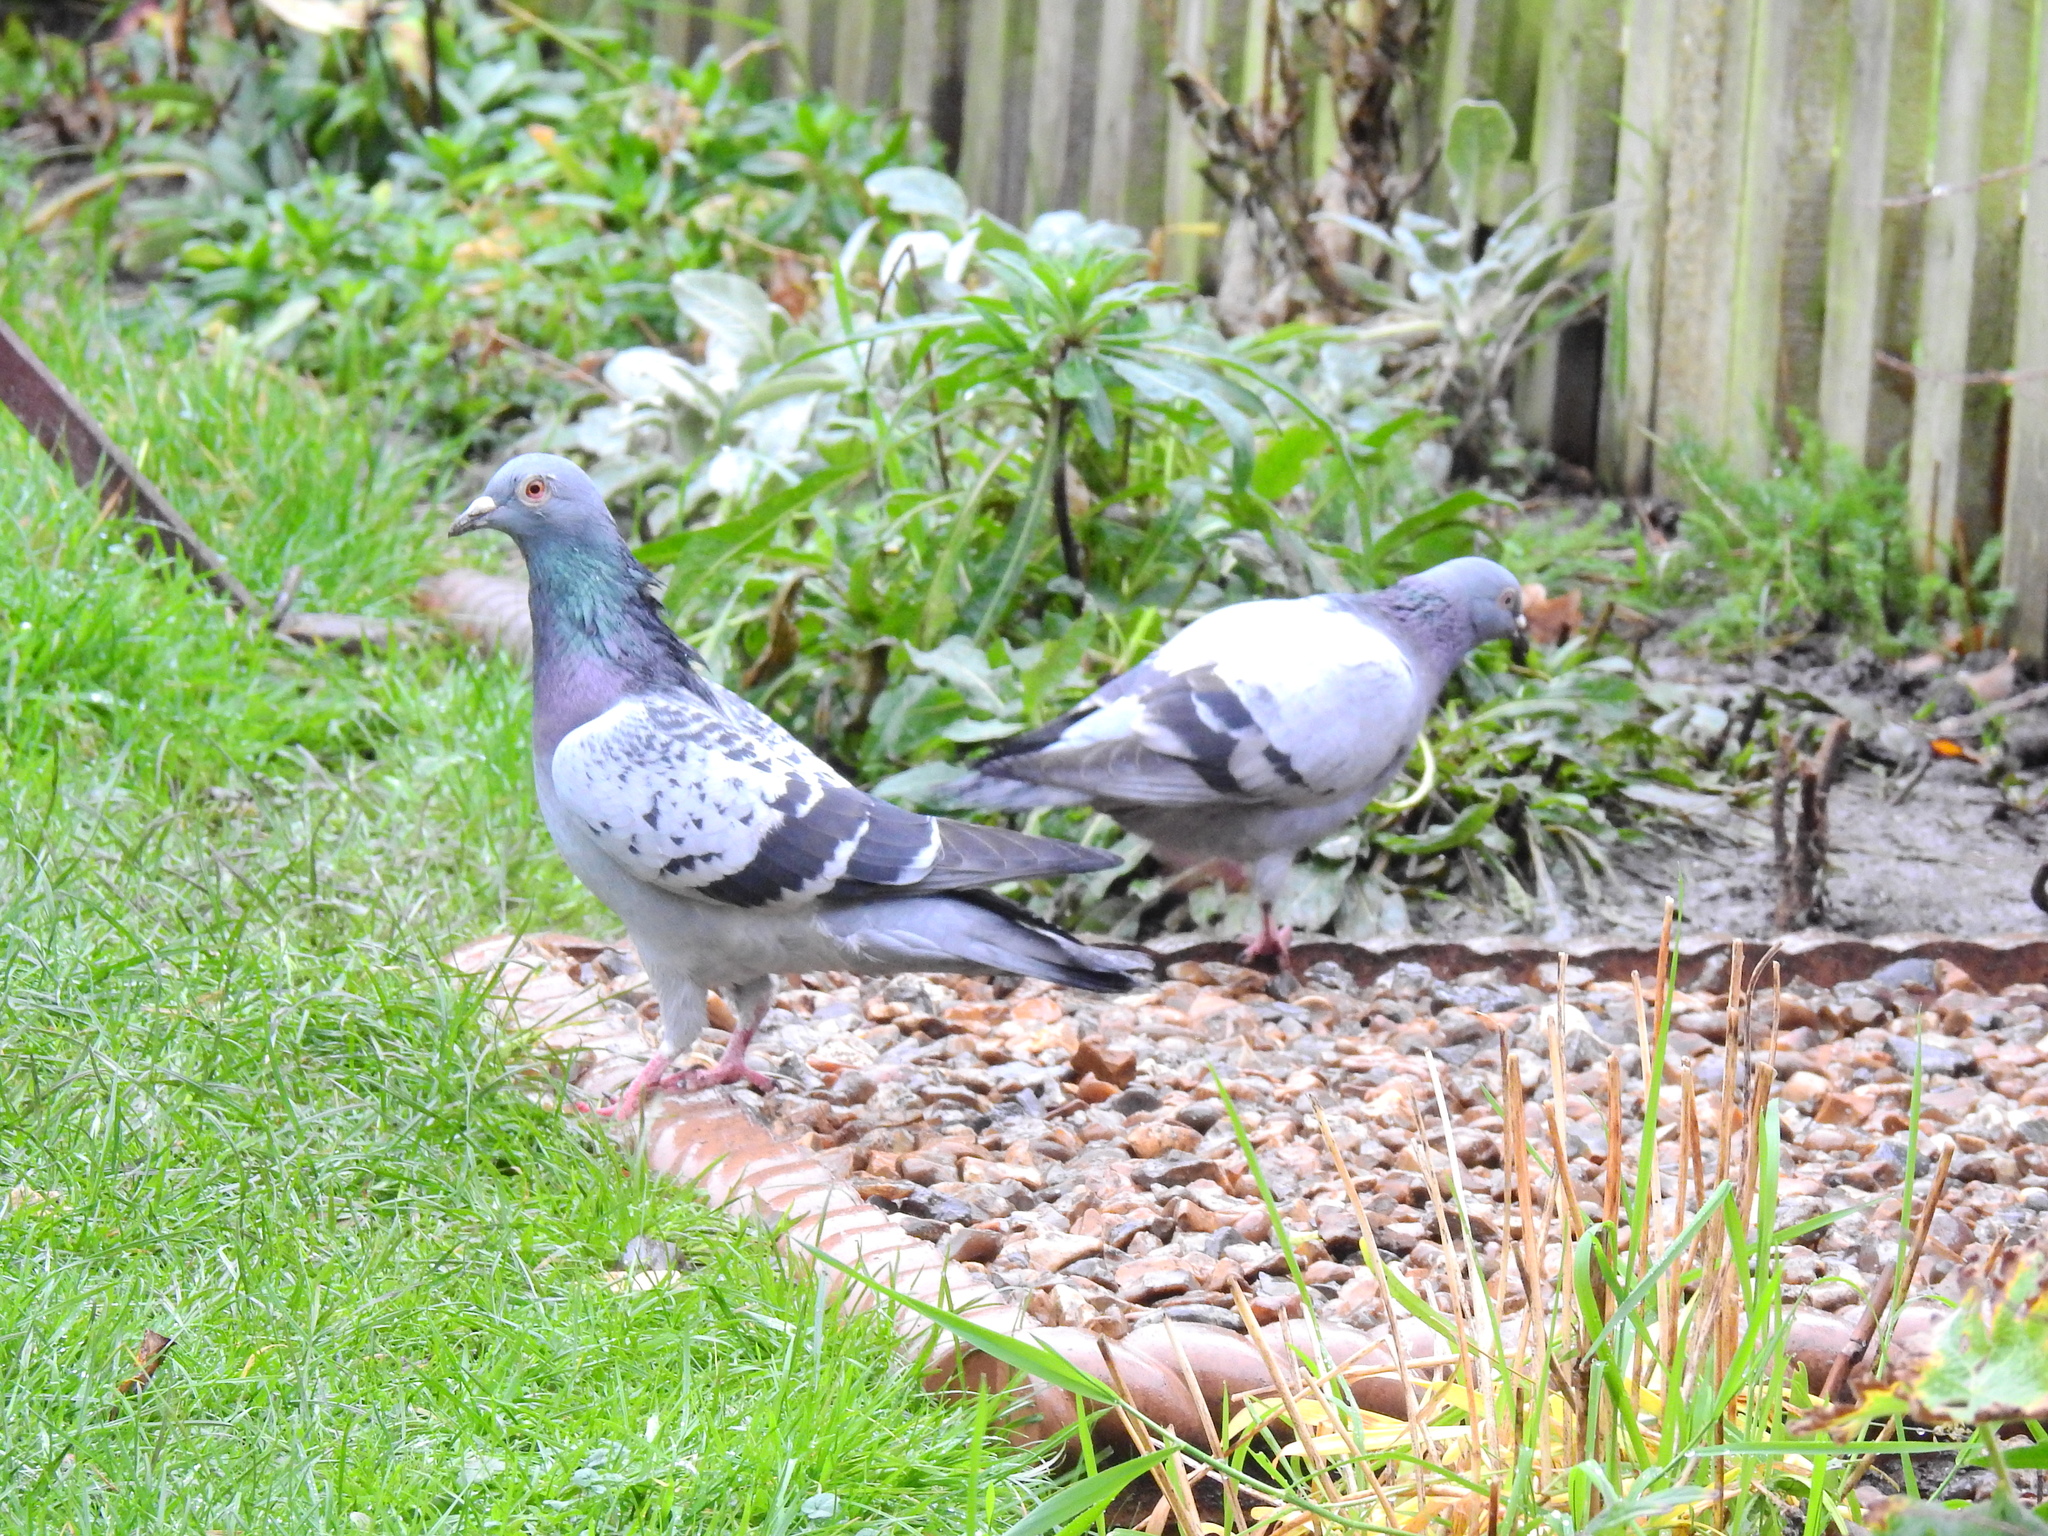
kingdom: Animalia
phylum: Chordata
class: Aves
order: Columbiformes
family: Columbidae
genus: Columba
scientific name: Columba livia
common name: Rock pigeon
